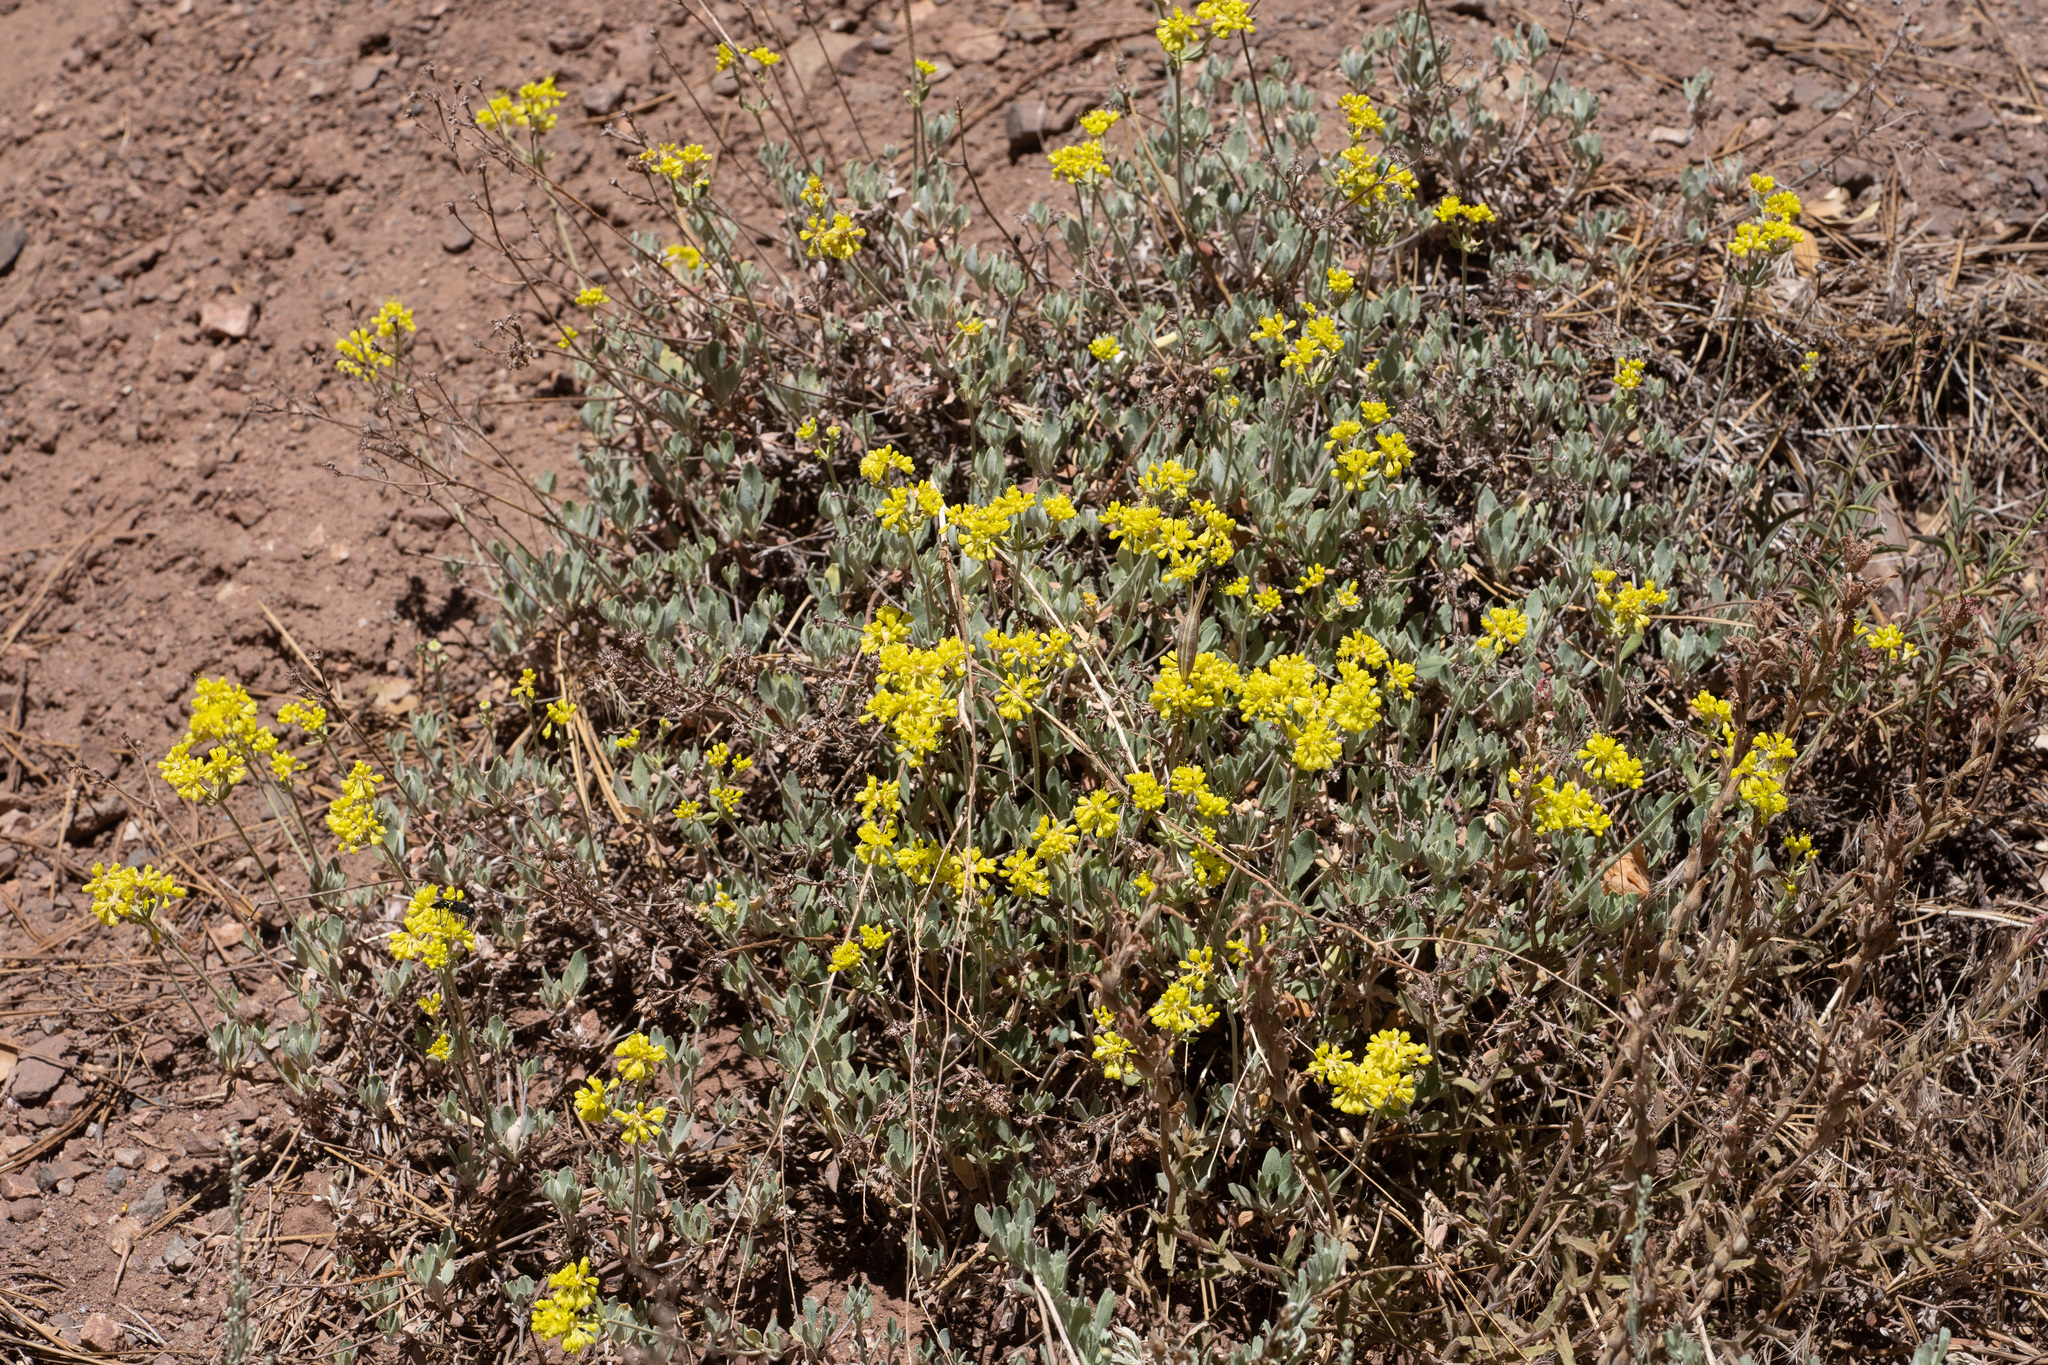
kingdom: Plantae
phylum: Tracheophyta
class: Magnoliopsida
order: Caryophyllales
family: Polygonaceae
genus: Eriogonum
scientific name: Eriogonum umbellatum
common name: Sulfur-buckwheat
